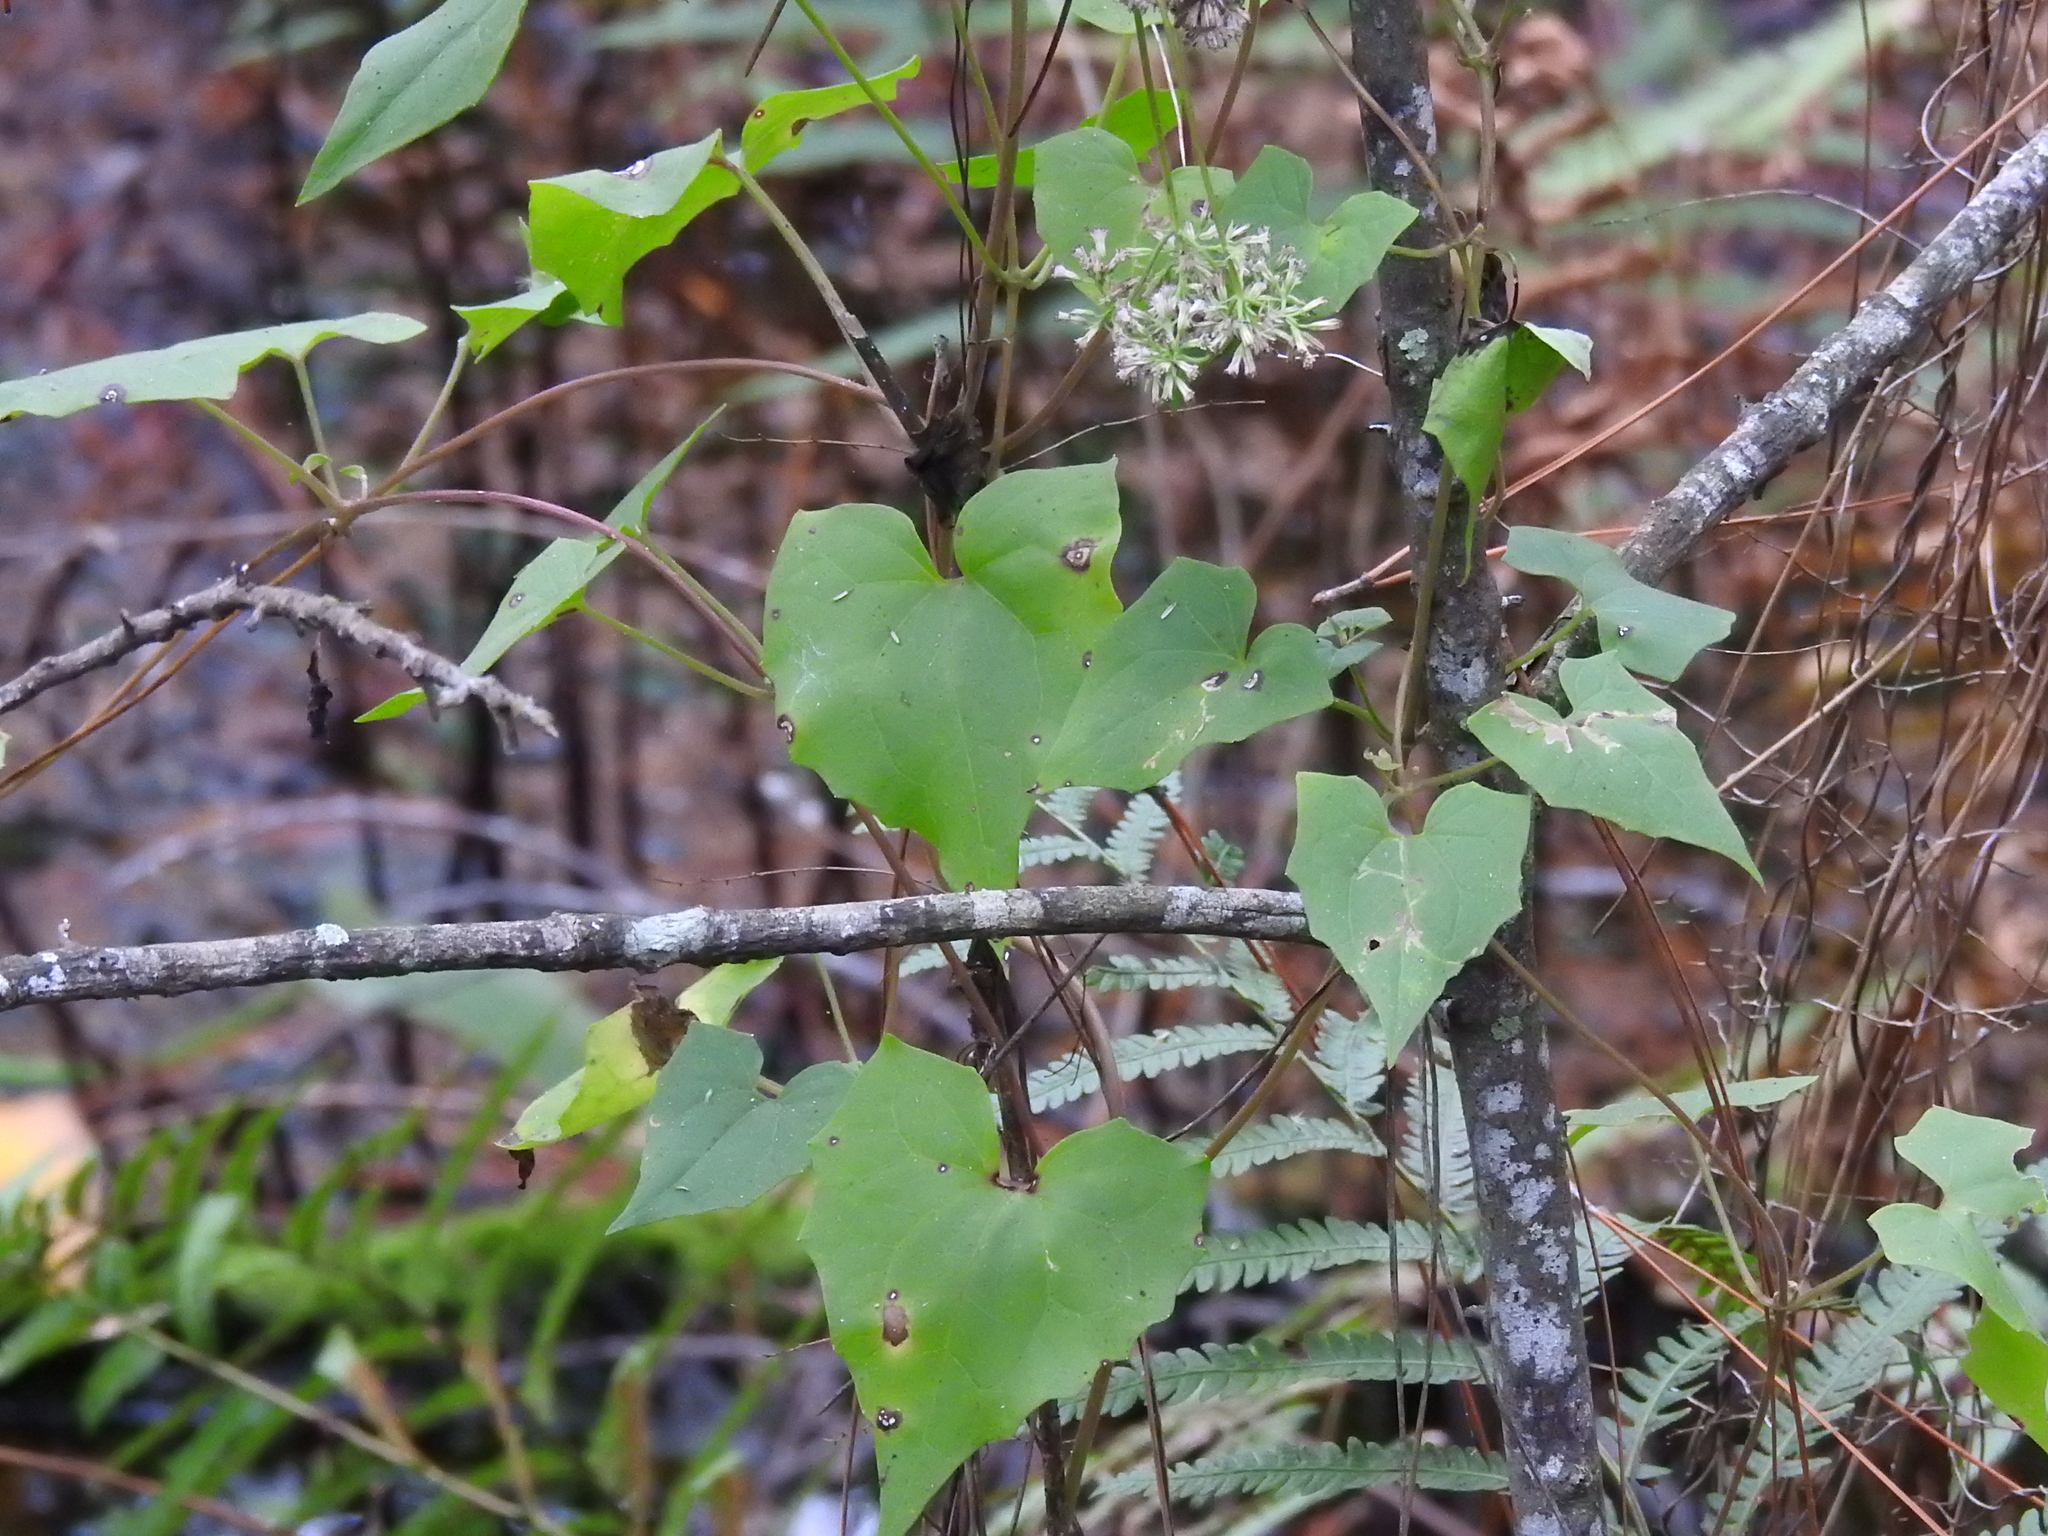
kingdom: Plantae
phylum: Tracheophyta
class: Magnoliopsida
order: Asterales
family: Asteraceae
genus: Mikania
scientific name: Mikania scandens
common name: Climbing hempvine
